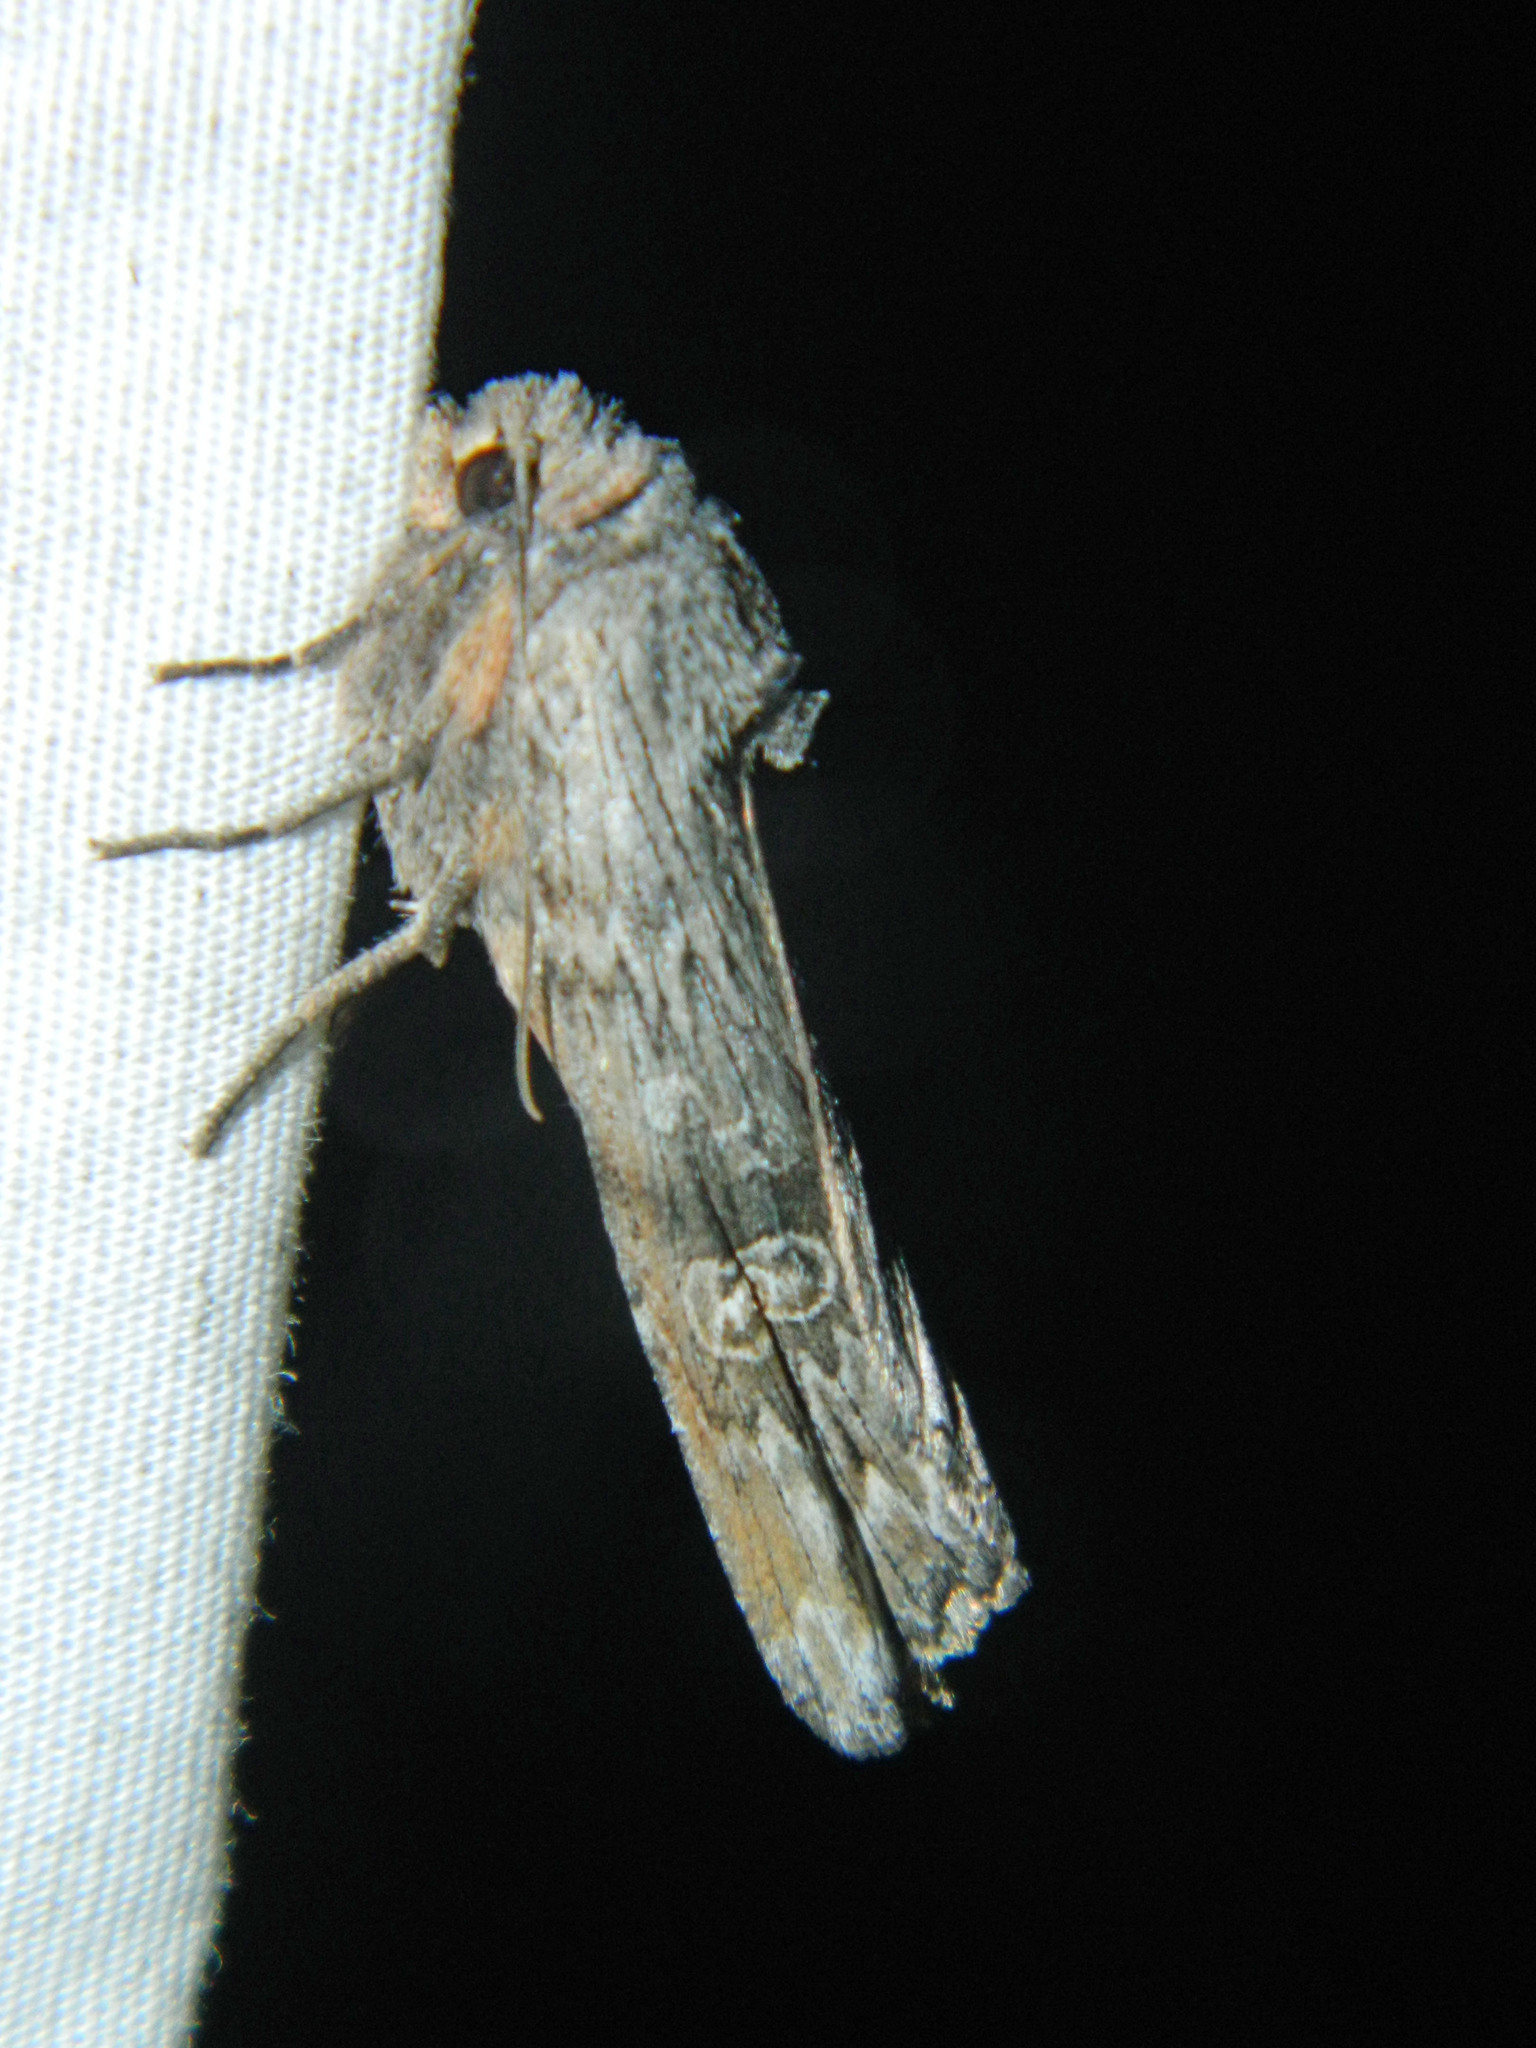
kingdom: Animalia
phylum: Arthropoda
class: Insecta
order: Lepidoptera
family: Noctuidae
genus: Xylena
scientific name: Xylena germana
